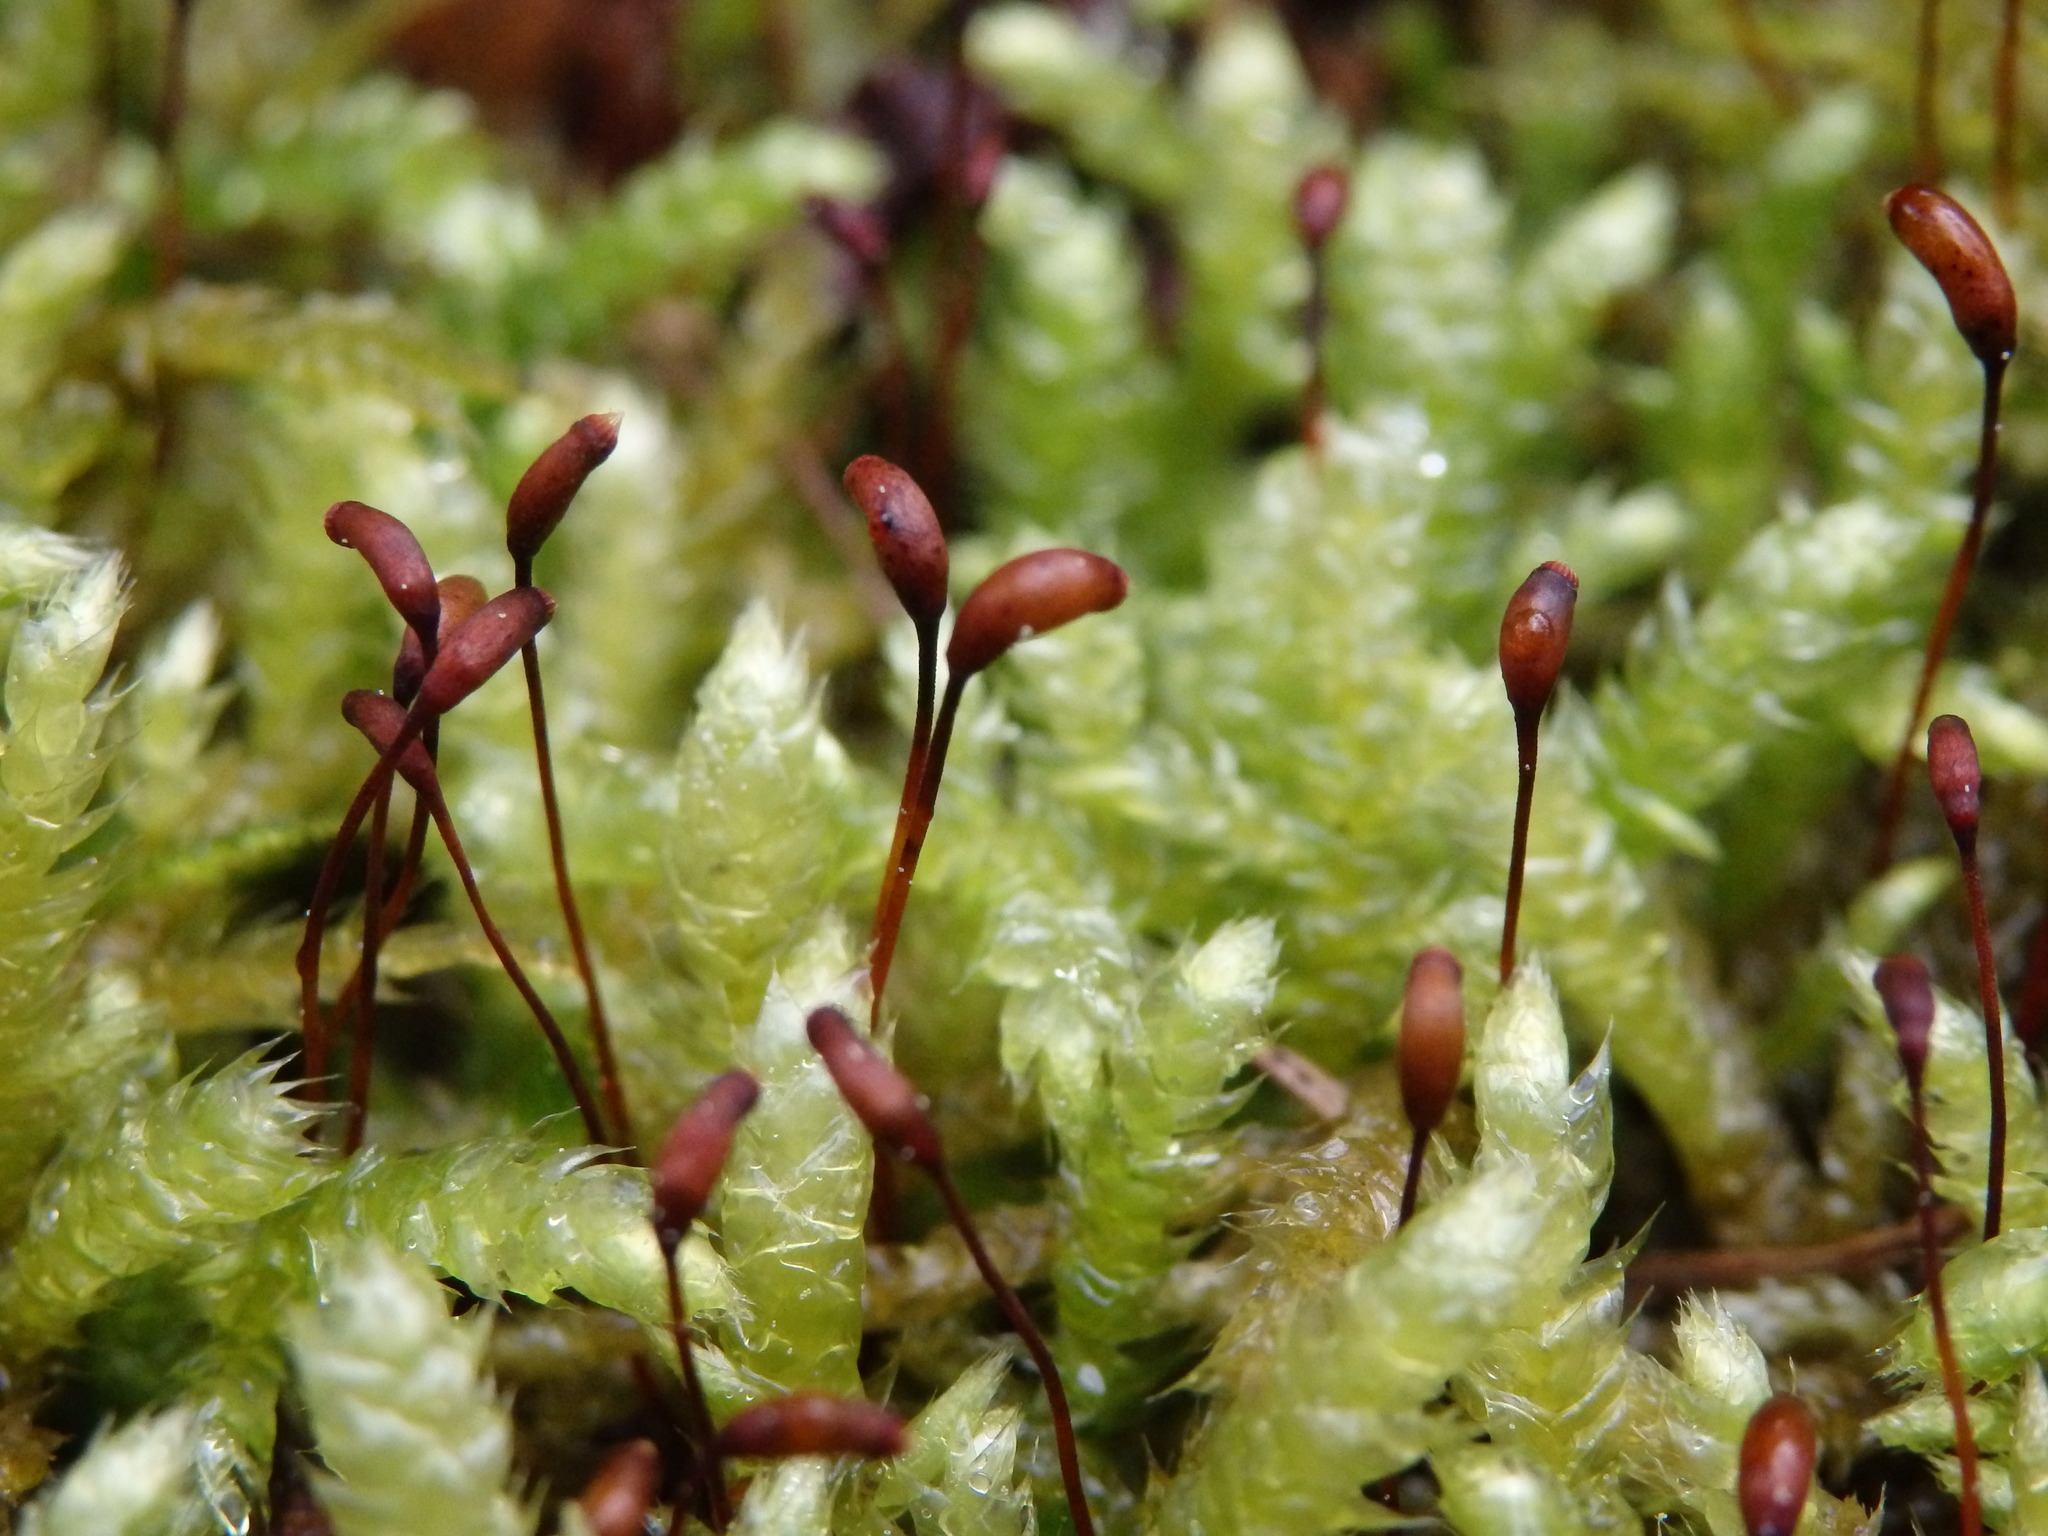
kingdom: Plantae
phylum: Bryophyta
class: Bryopsida
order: Hypnales
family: Brachytheciaceae
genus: Brachythecium
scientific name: Brachythecium rutabulum
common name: Rough-stalked feather-moss
